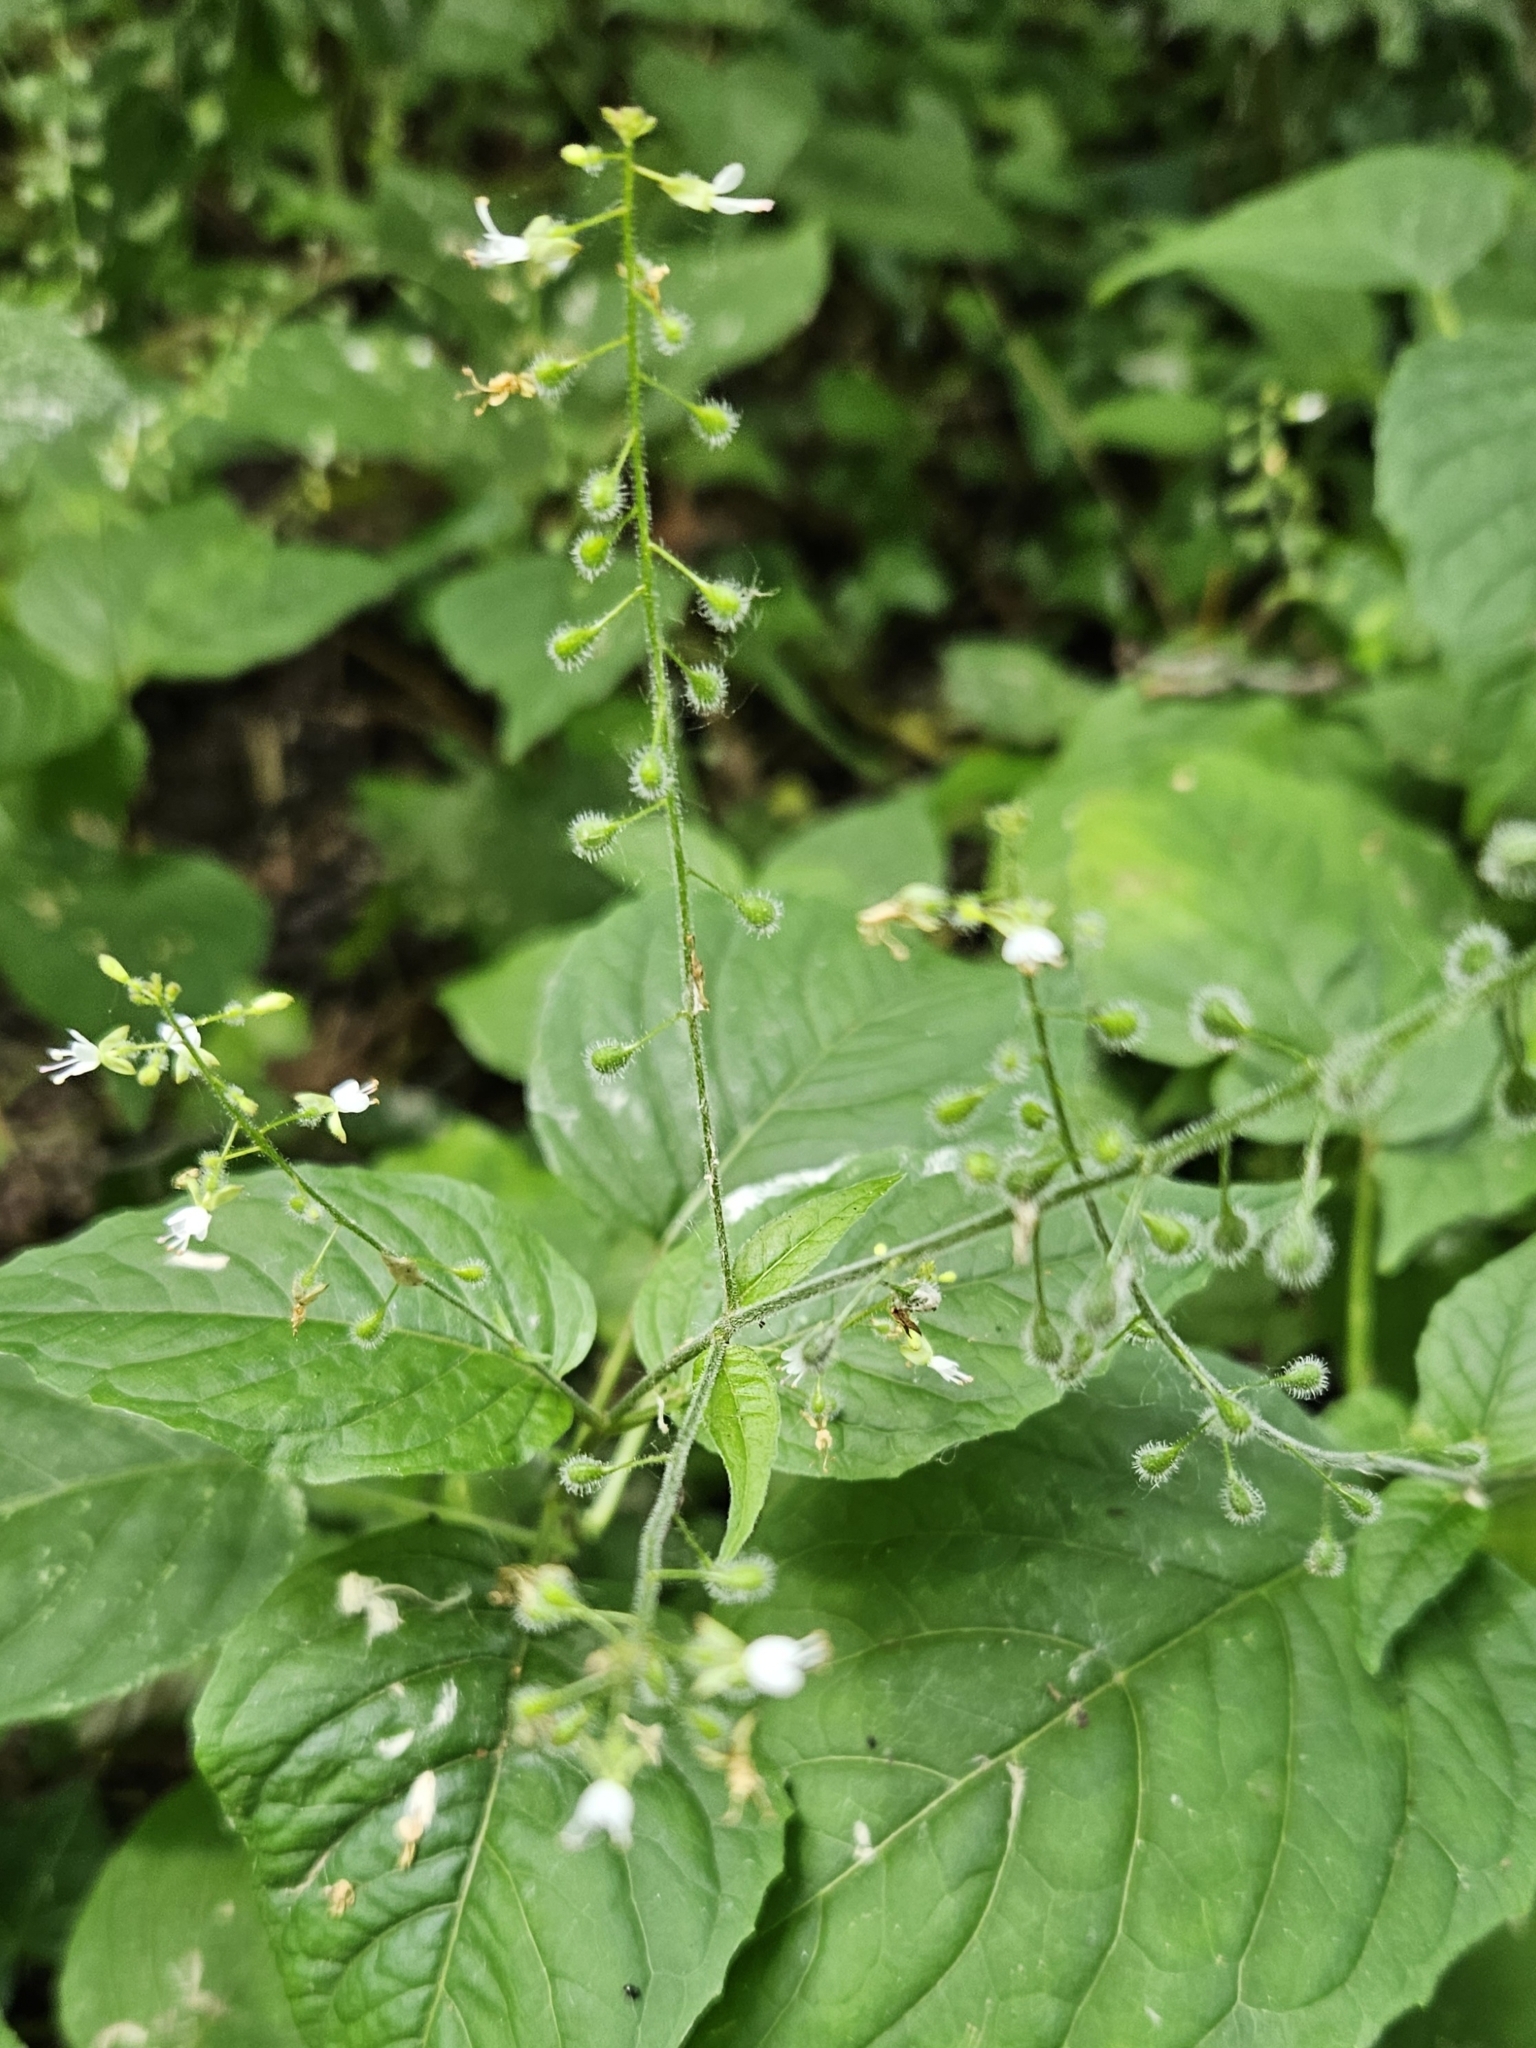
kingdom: Plantae
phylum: Tracheophyta
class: Magnoliopsida
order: Myrtales
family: Onagraceae
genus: Circaea
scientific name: Circaea lutetiana
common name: Enchanter's-nightshade
